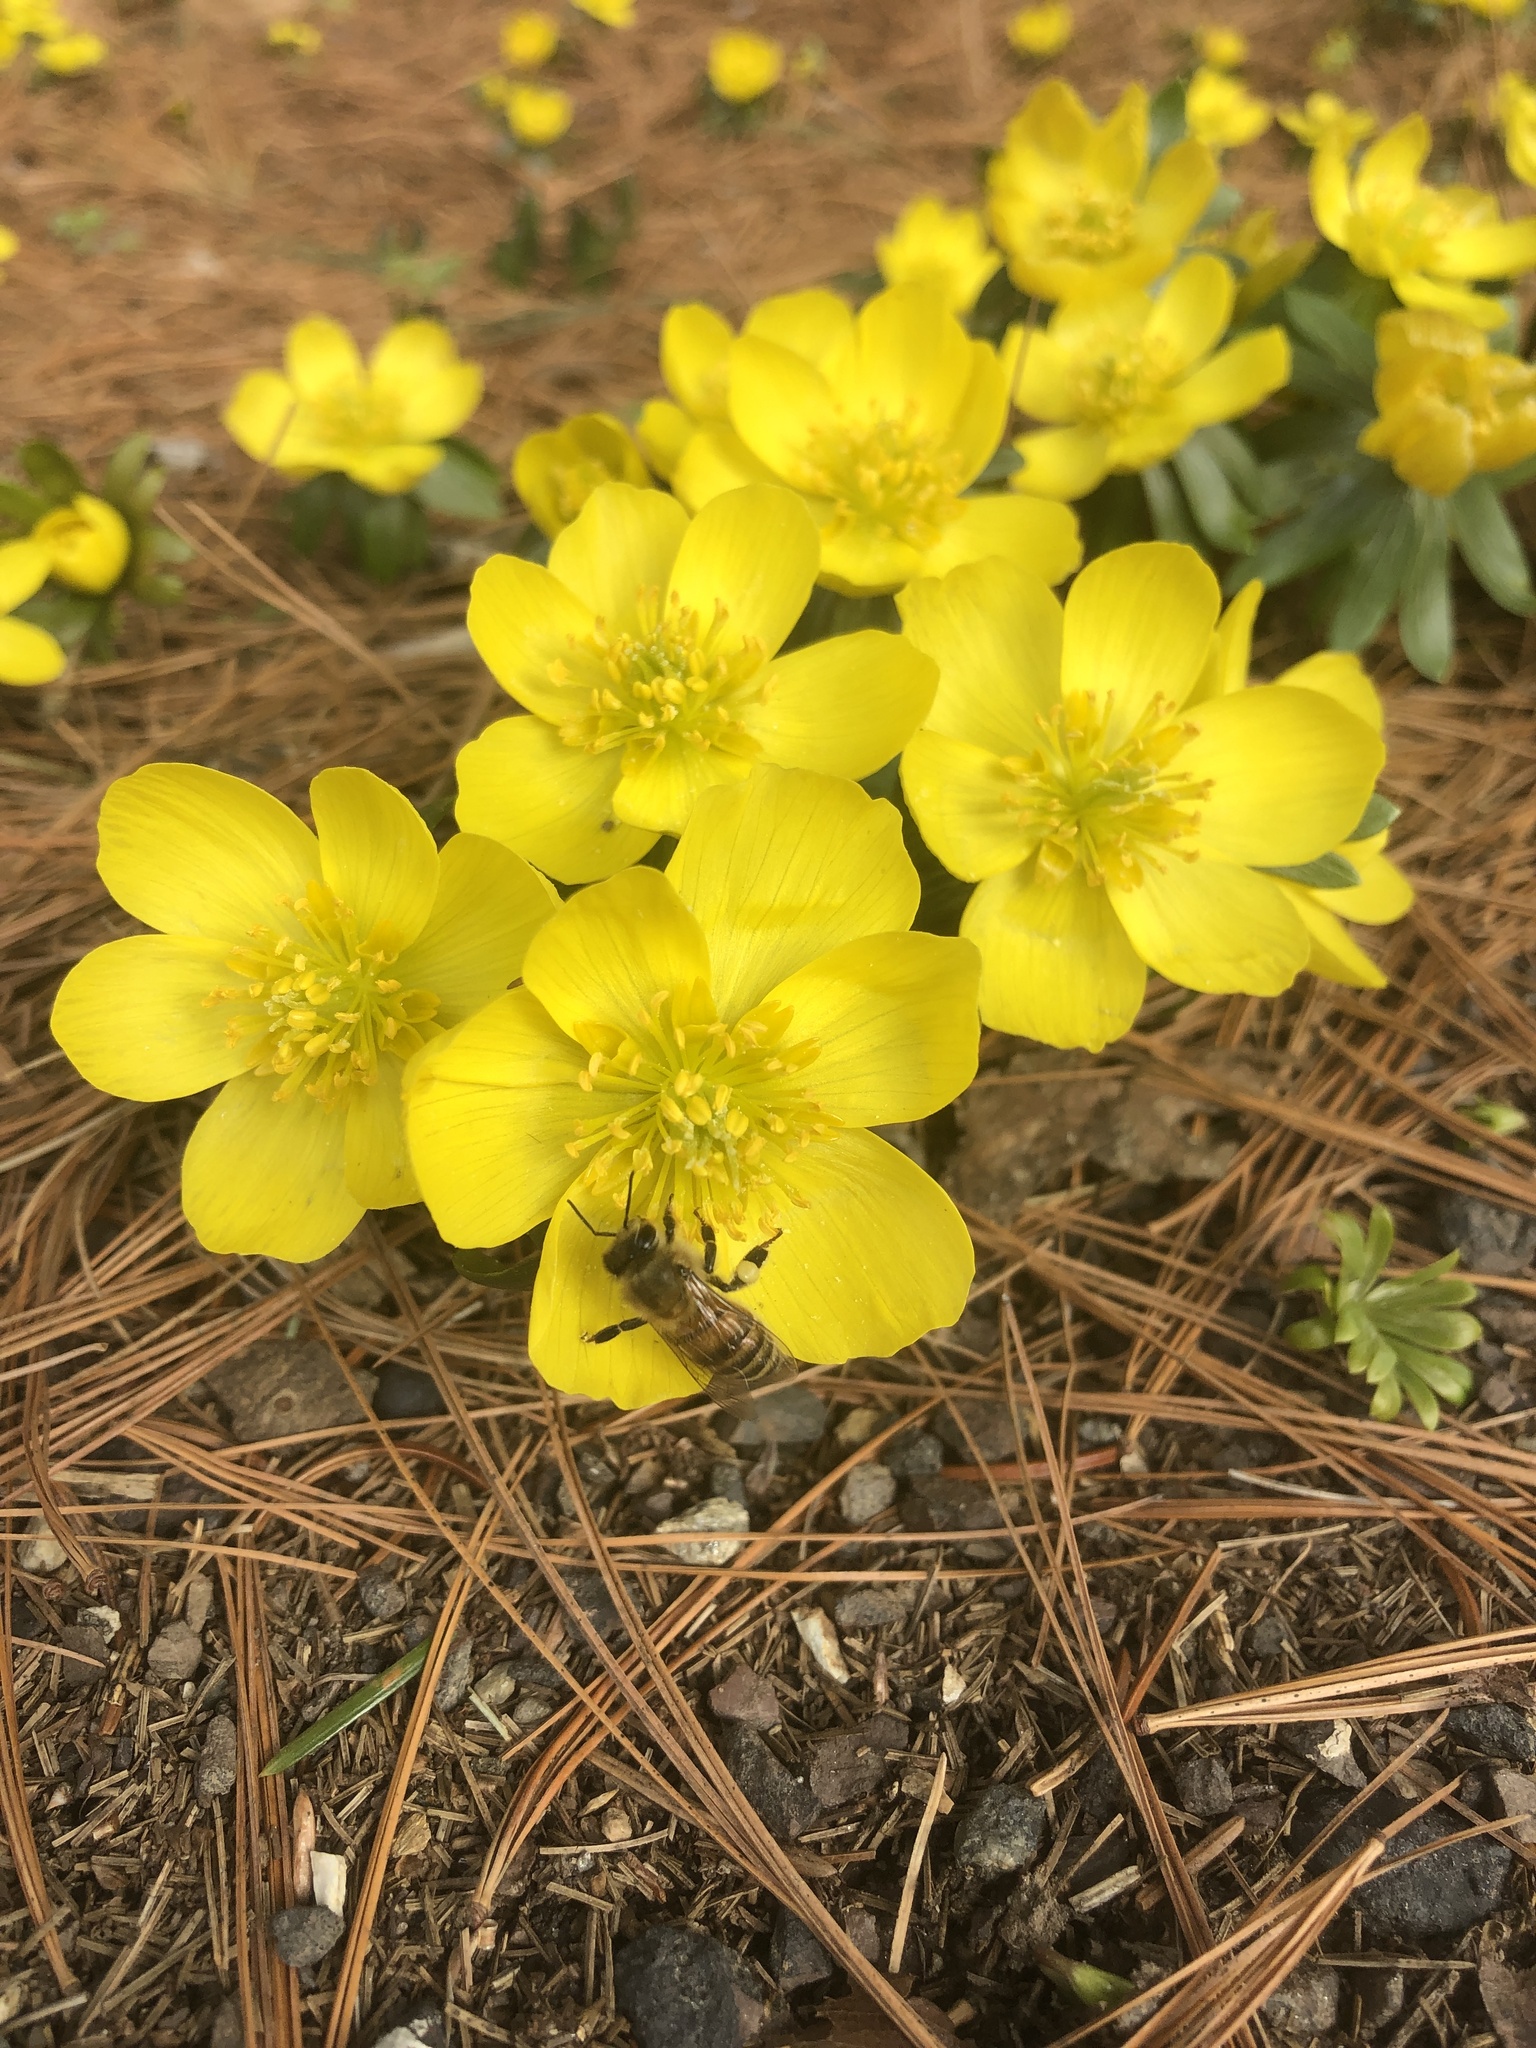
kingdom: Animalia
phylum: Arthropoda
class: Insecta
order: Hymenoptera
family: Apidae
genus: Apis
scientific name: Apis mellifera
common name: Honey bee
